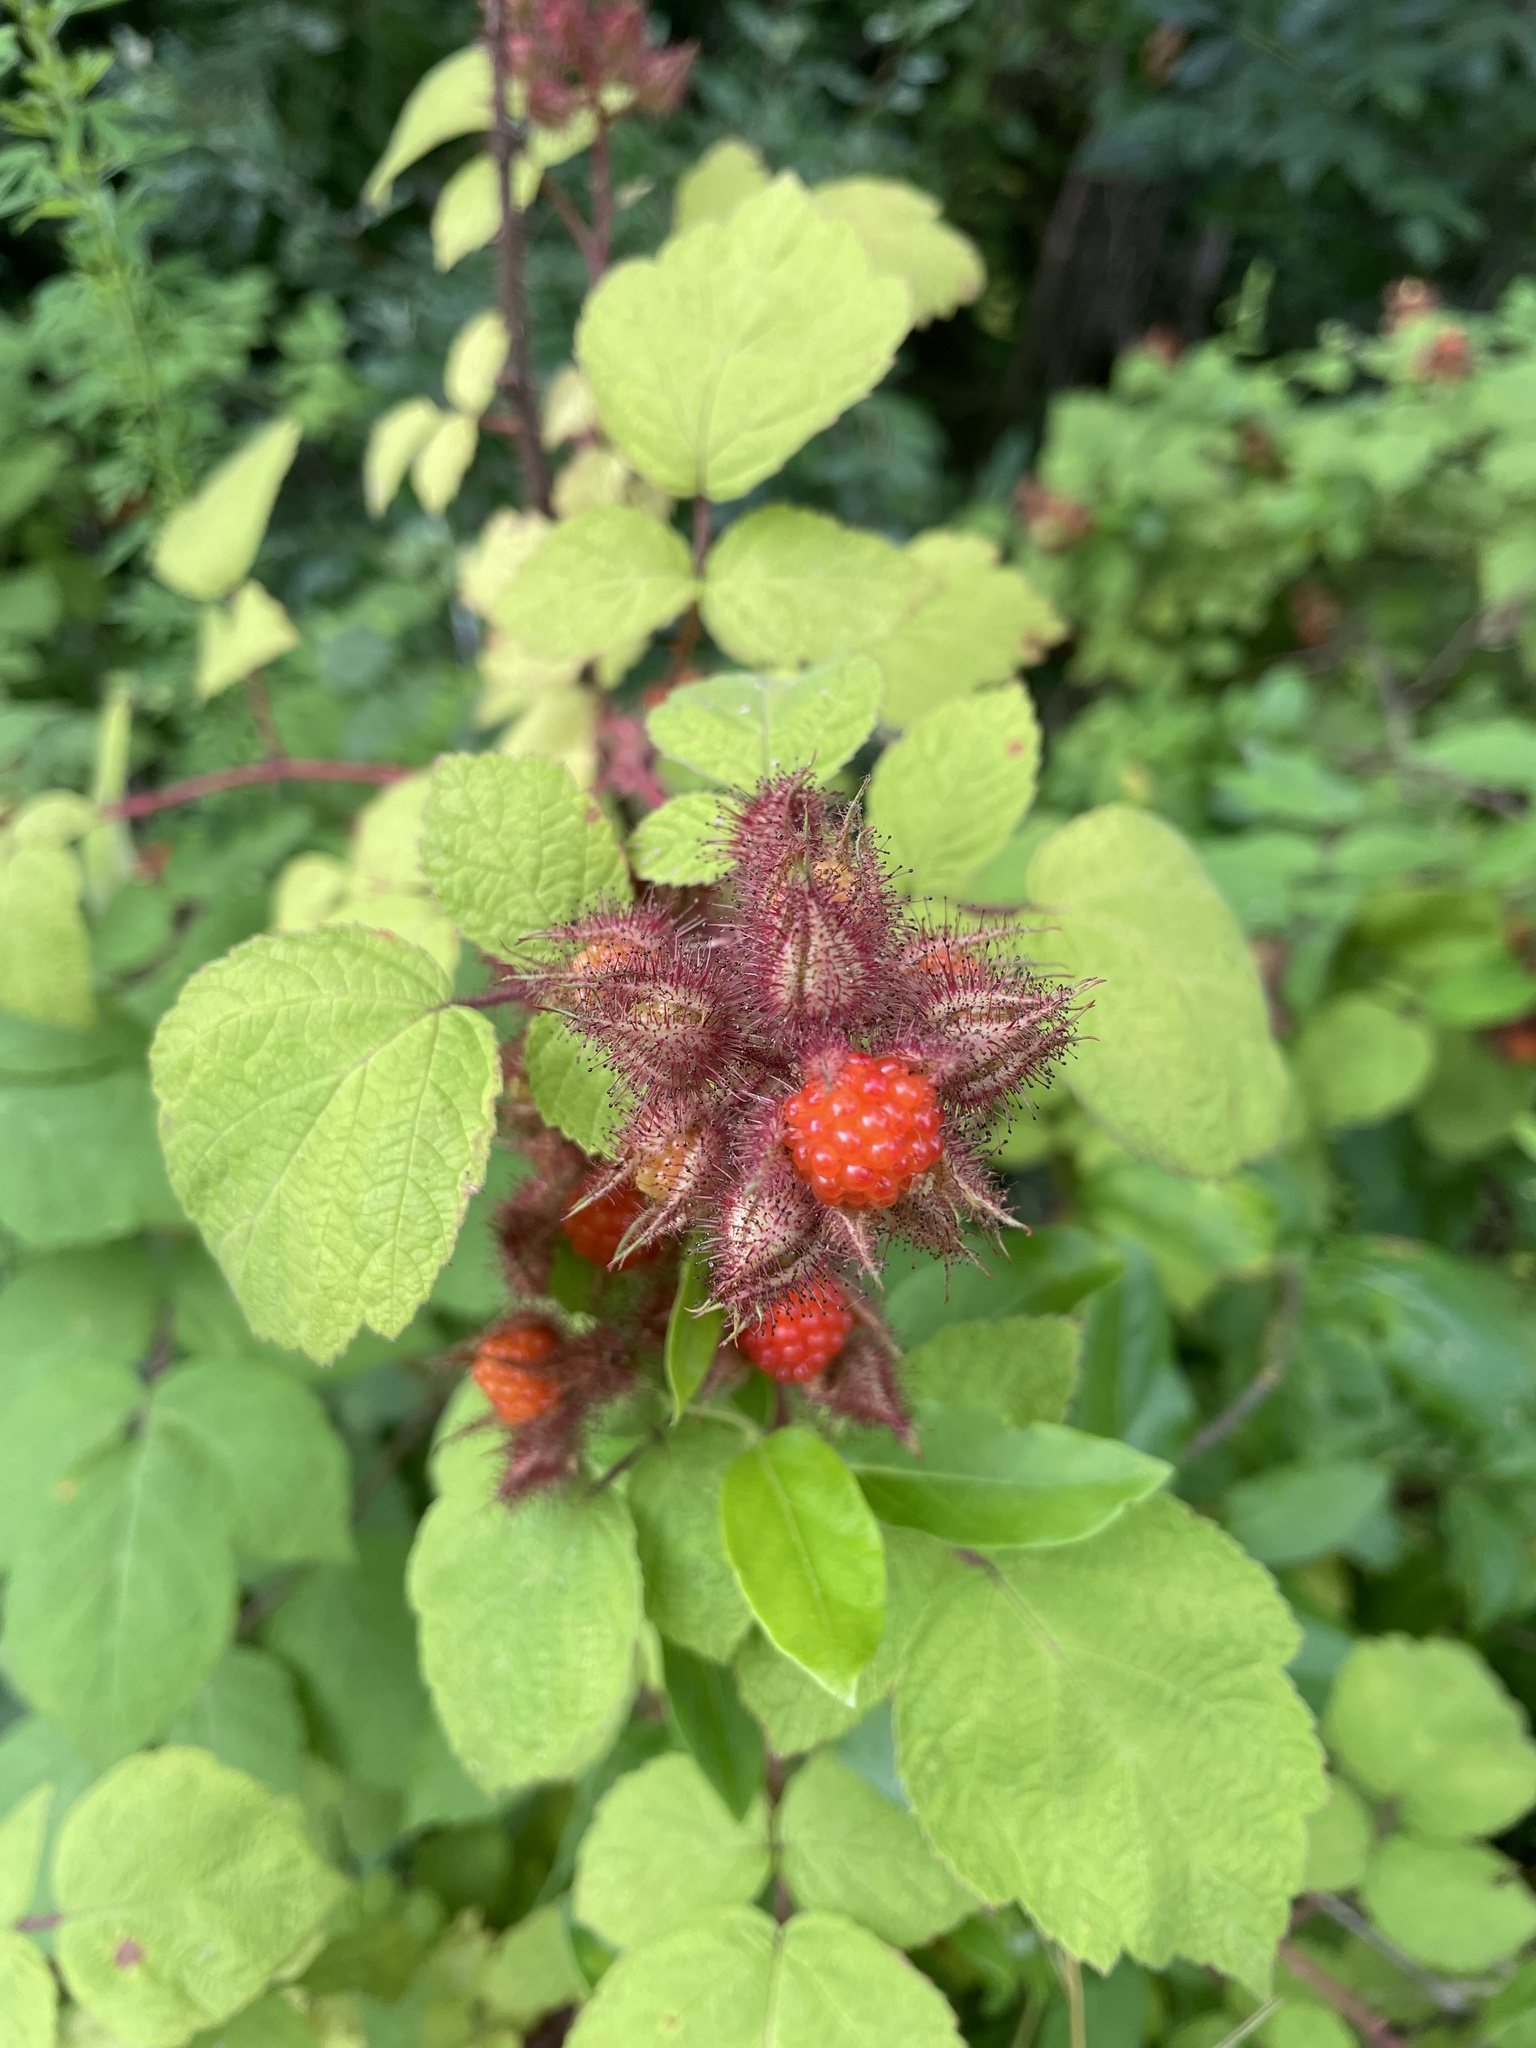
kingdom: Plantae
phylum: Tracheophyta
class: Magnoliopsida
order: Rosales
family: Rosaceae
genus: Rubus
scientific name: Rubus phoenicolasius
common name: Japanese wineberry
